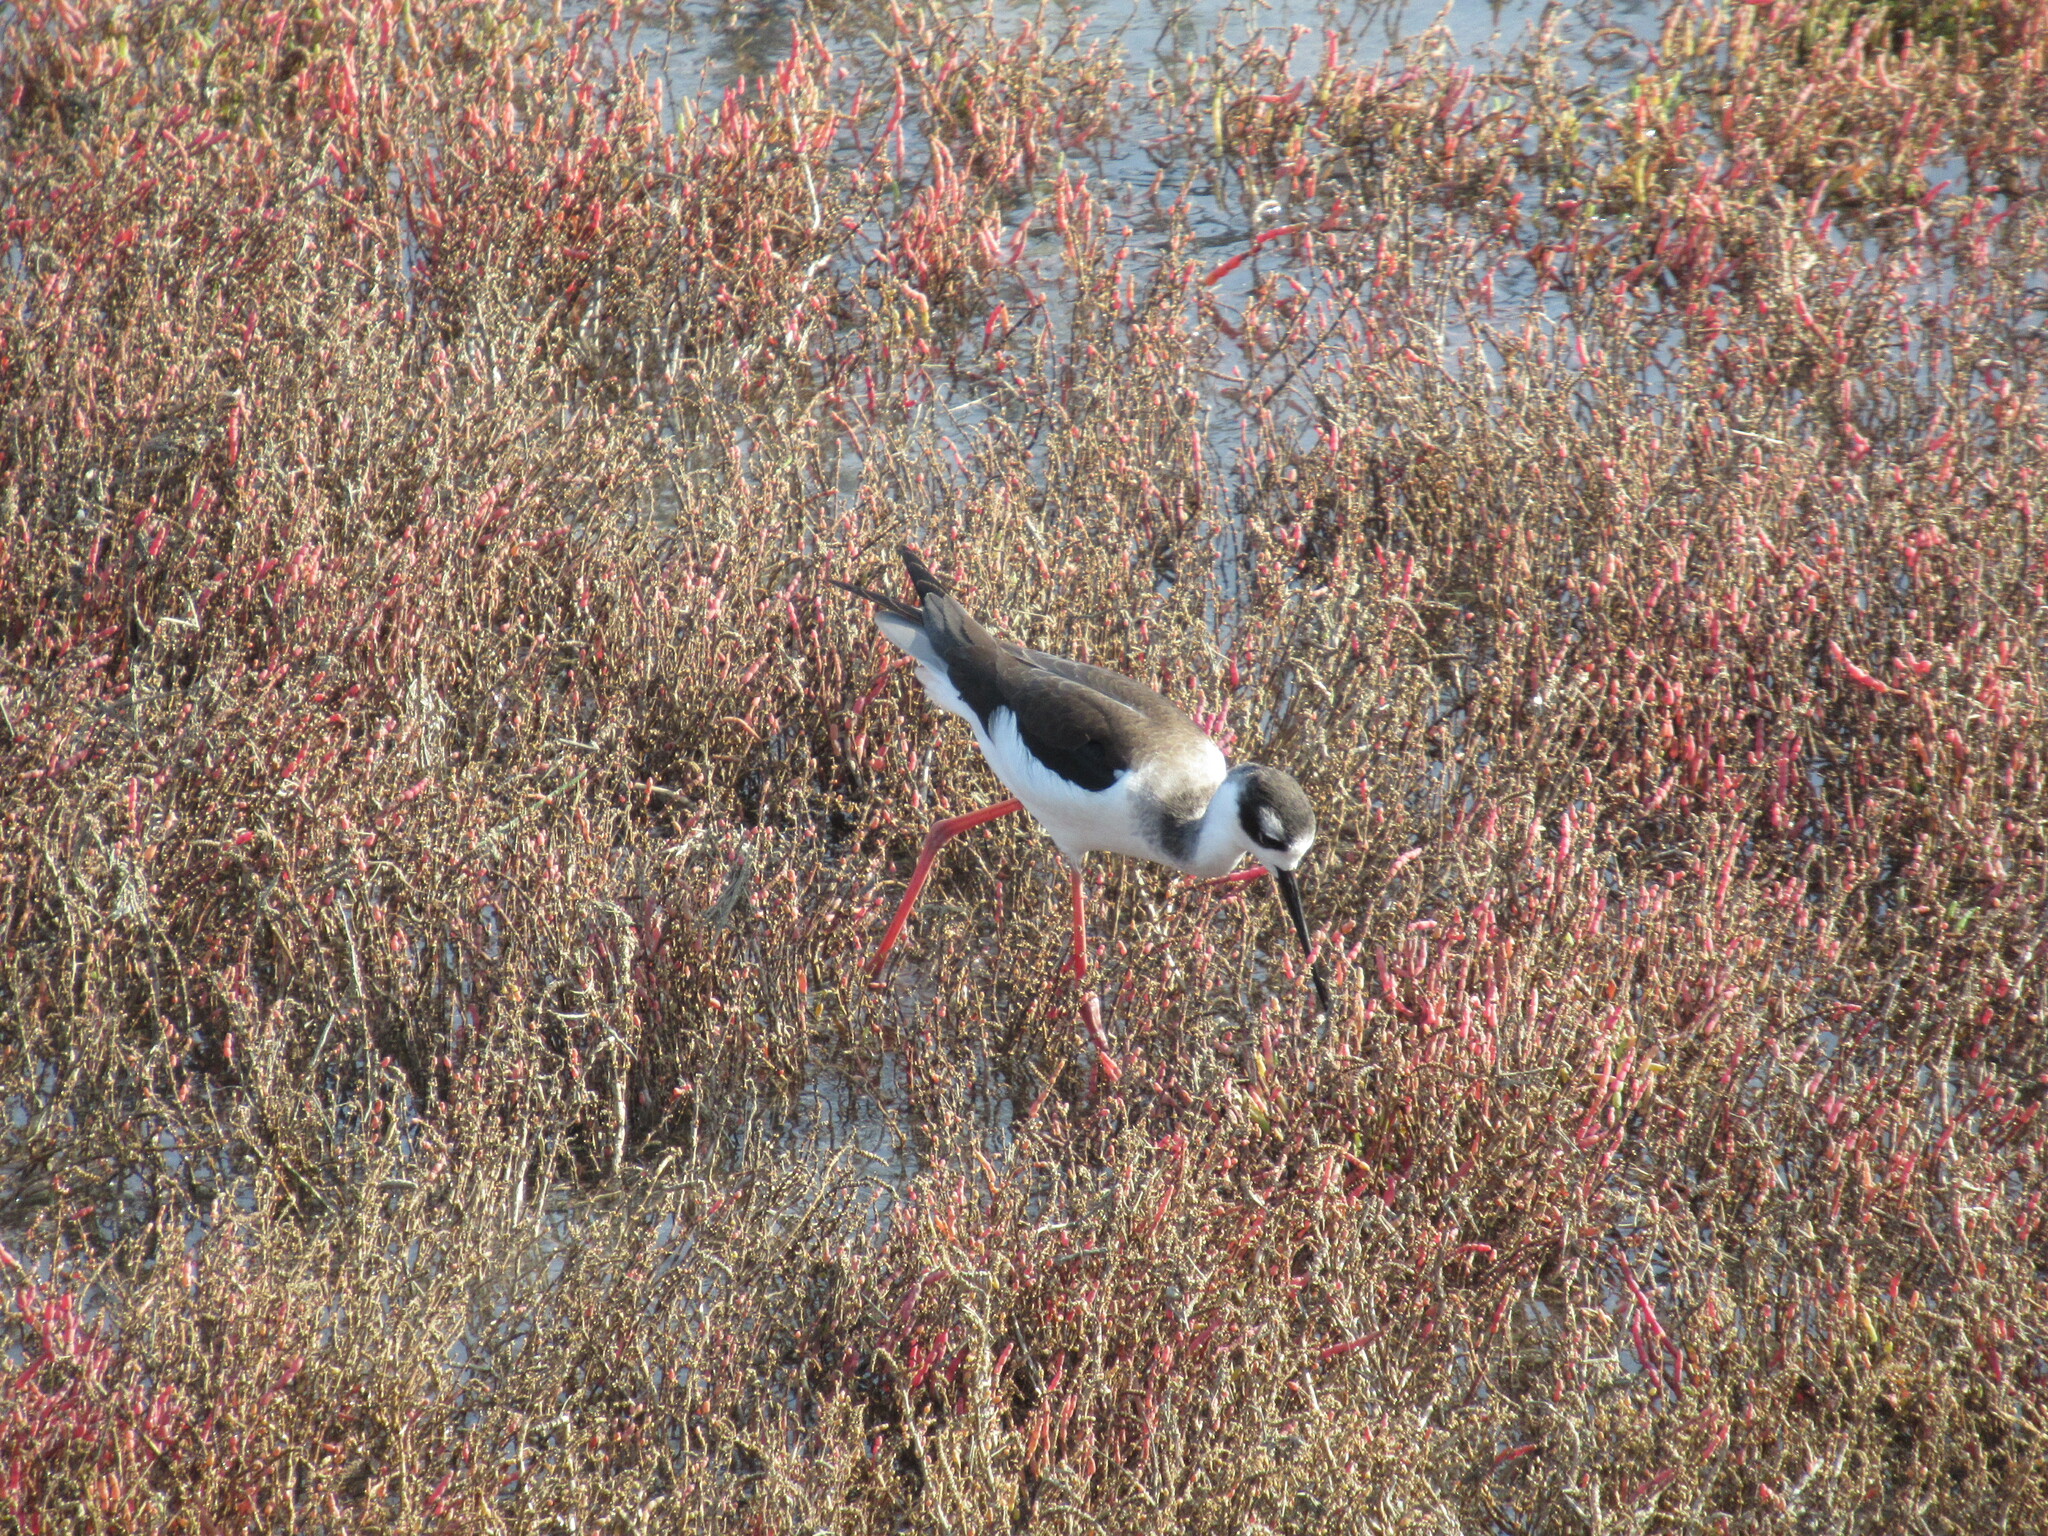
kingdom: Animalia
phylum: Chordata
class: Aves
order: Charadriiformes
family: Recurvirostridae
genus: Himantopus
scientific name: Himantopus mexicanus
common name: Black-necked stilt
